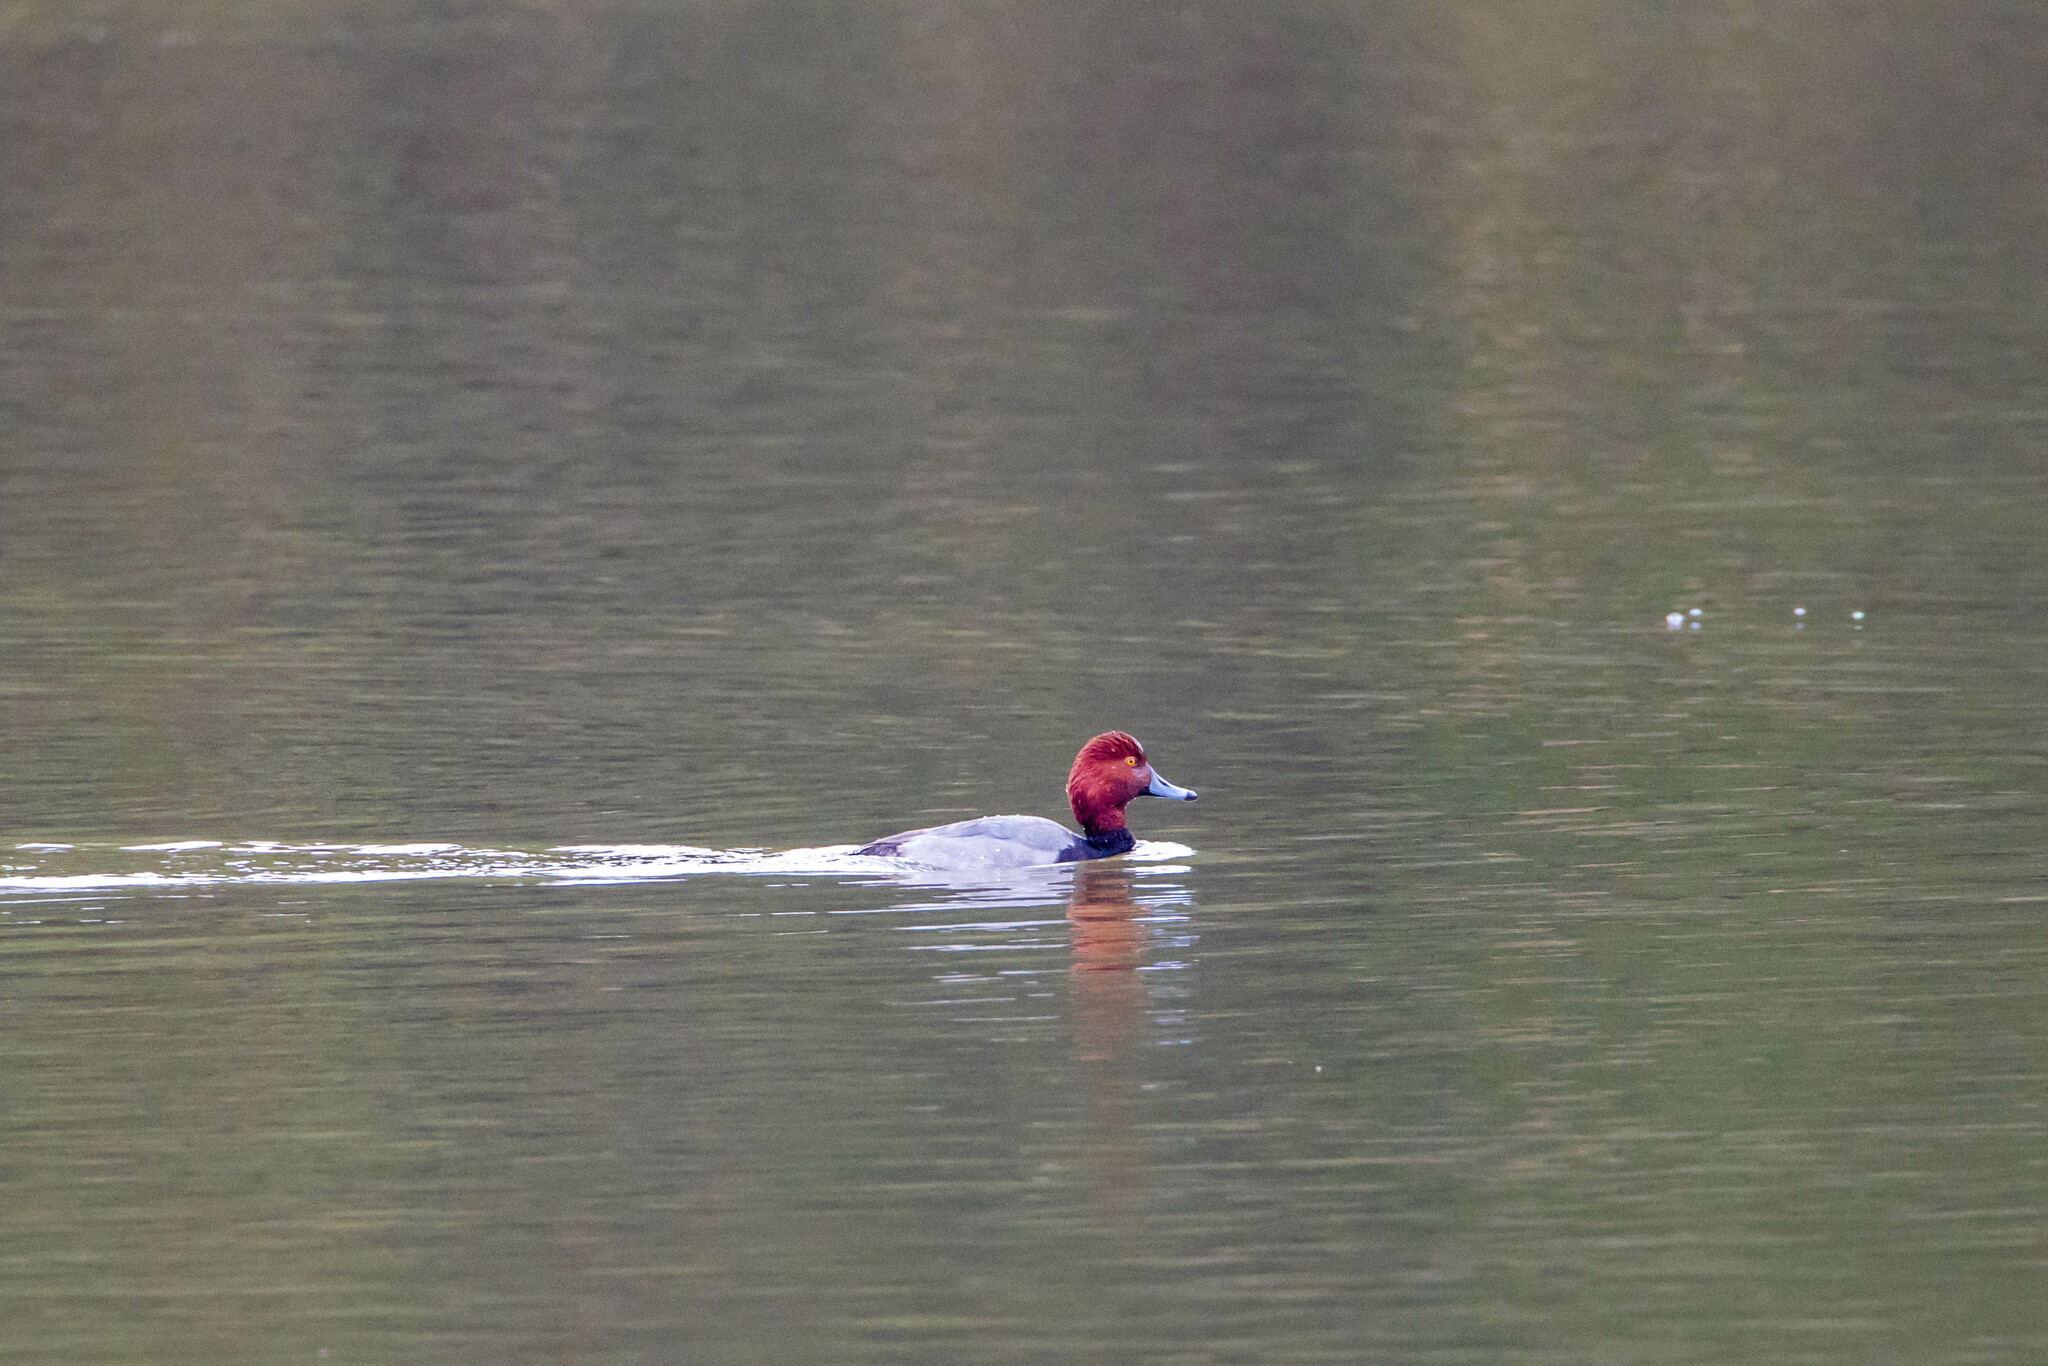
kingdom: Animalia
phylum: Chordata
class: Aves
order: Anseriformes
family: Anatidae
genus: Aythya
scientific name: Aythya americana
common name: Redhead
